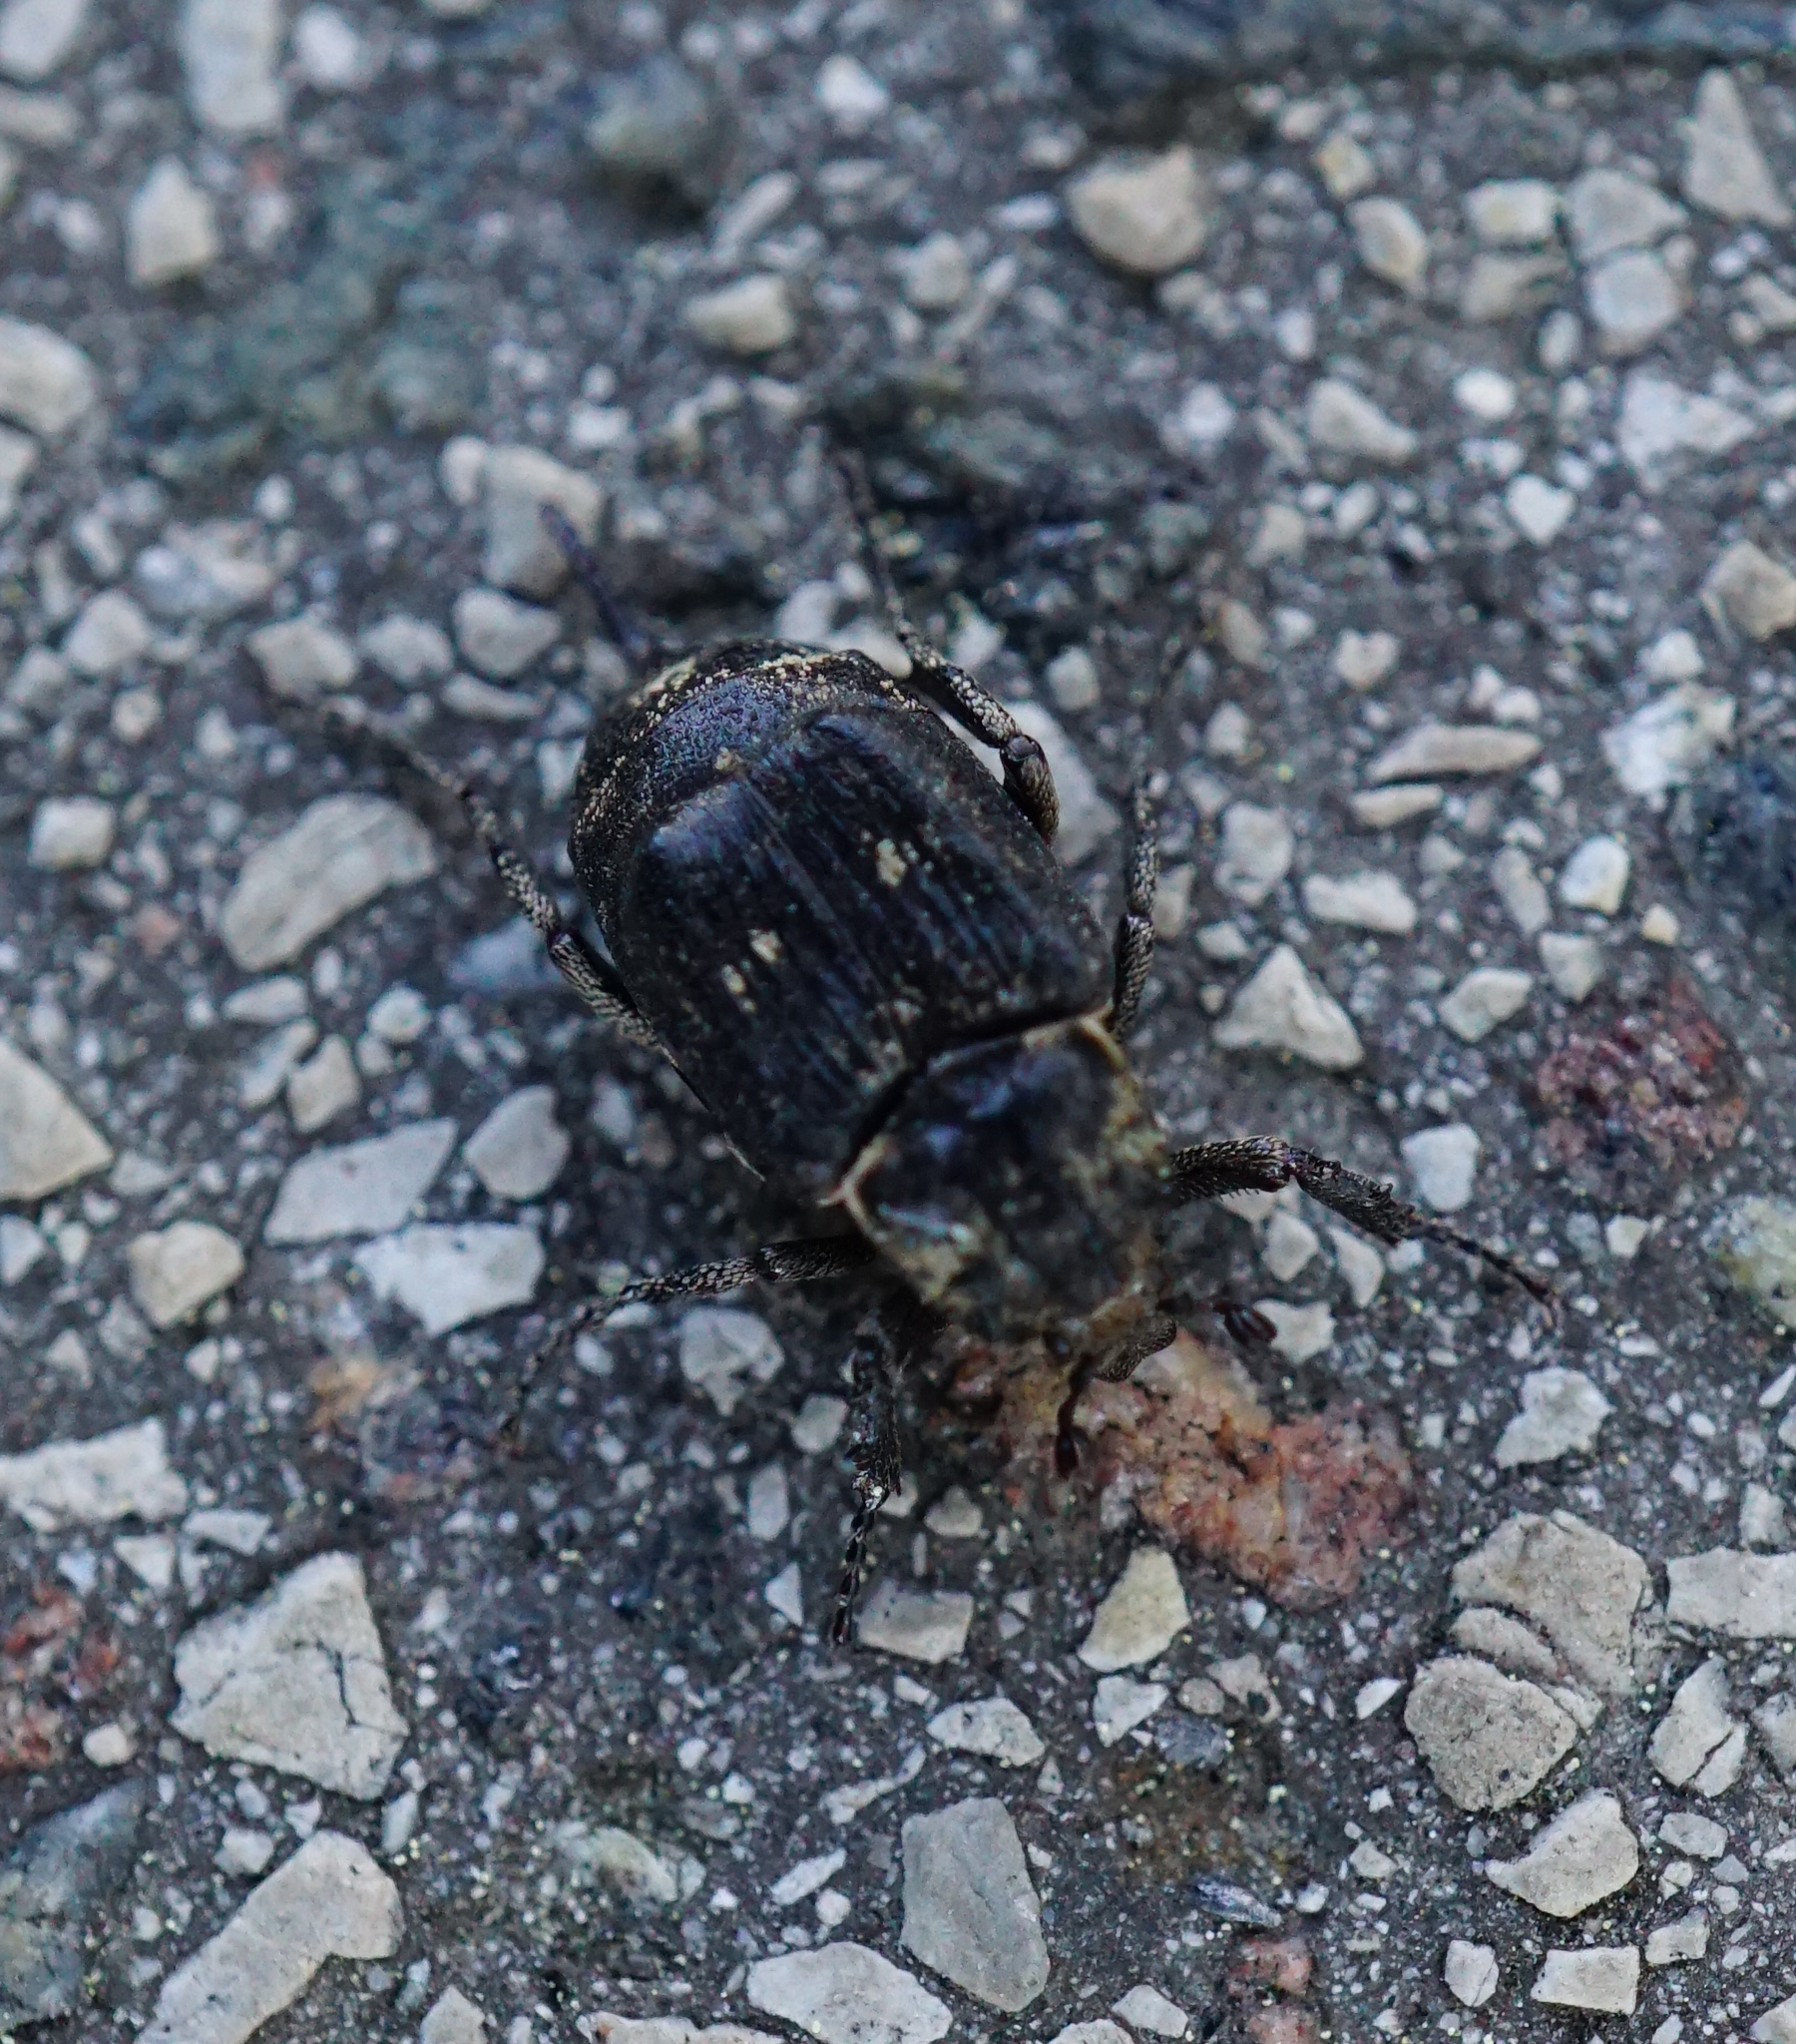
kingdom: Animalia
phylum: Arthropoda
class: Insecta
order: Coleoptera
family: Scarabaeidae
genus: Valgus
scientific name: Valgus hemipterus
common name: Bug flower chafer
